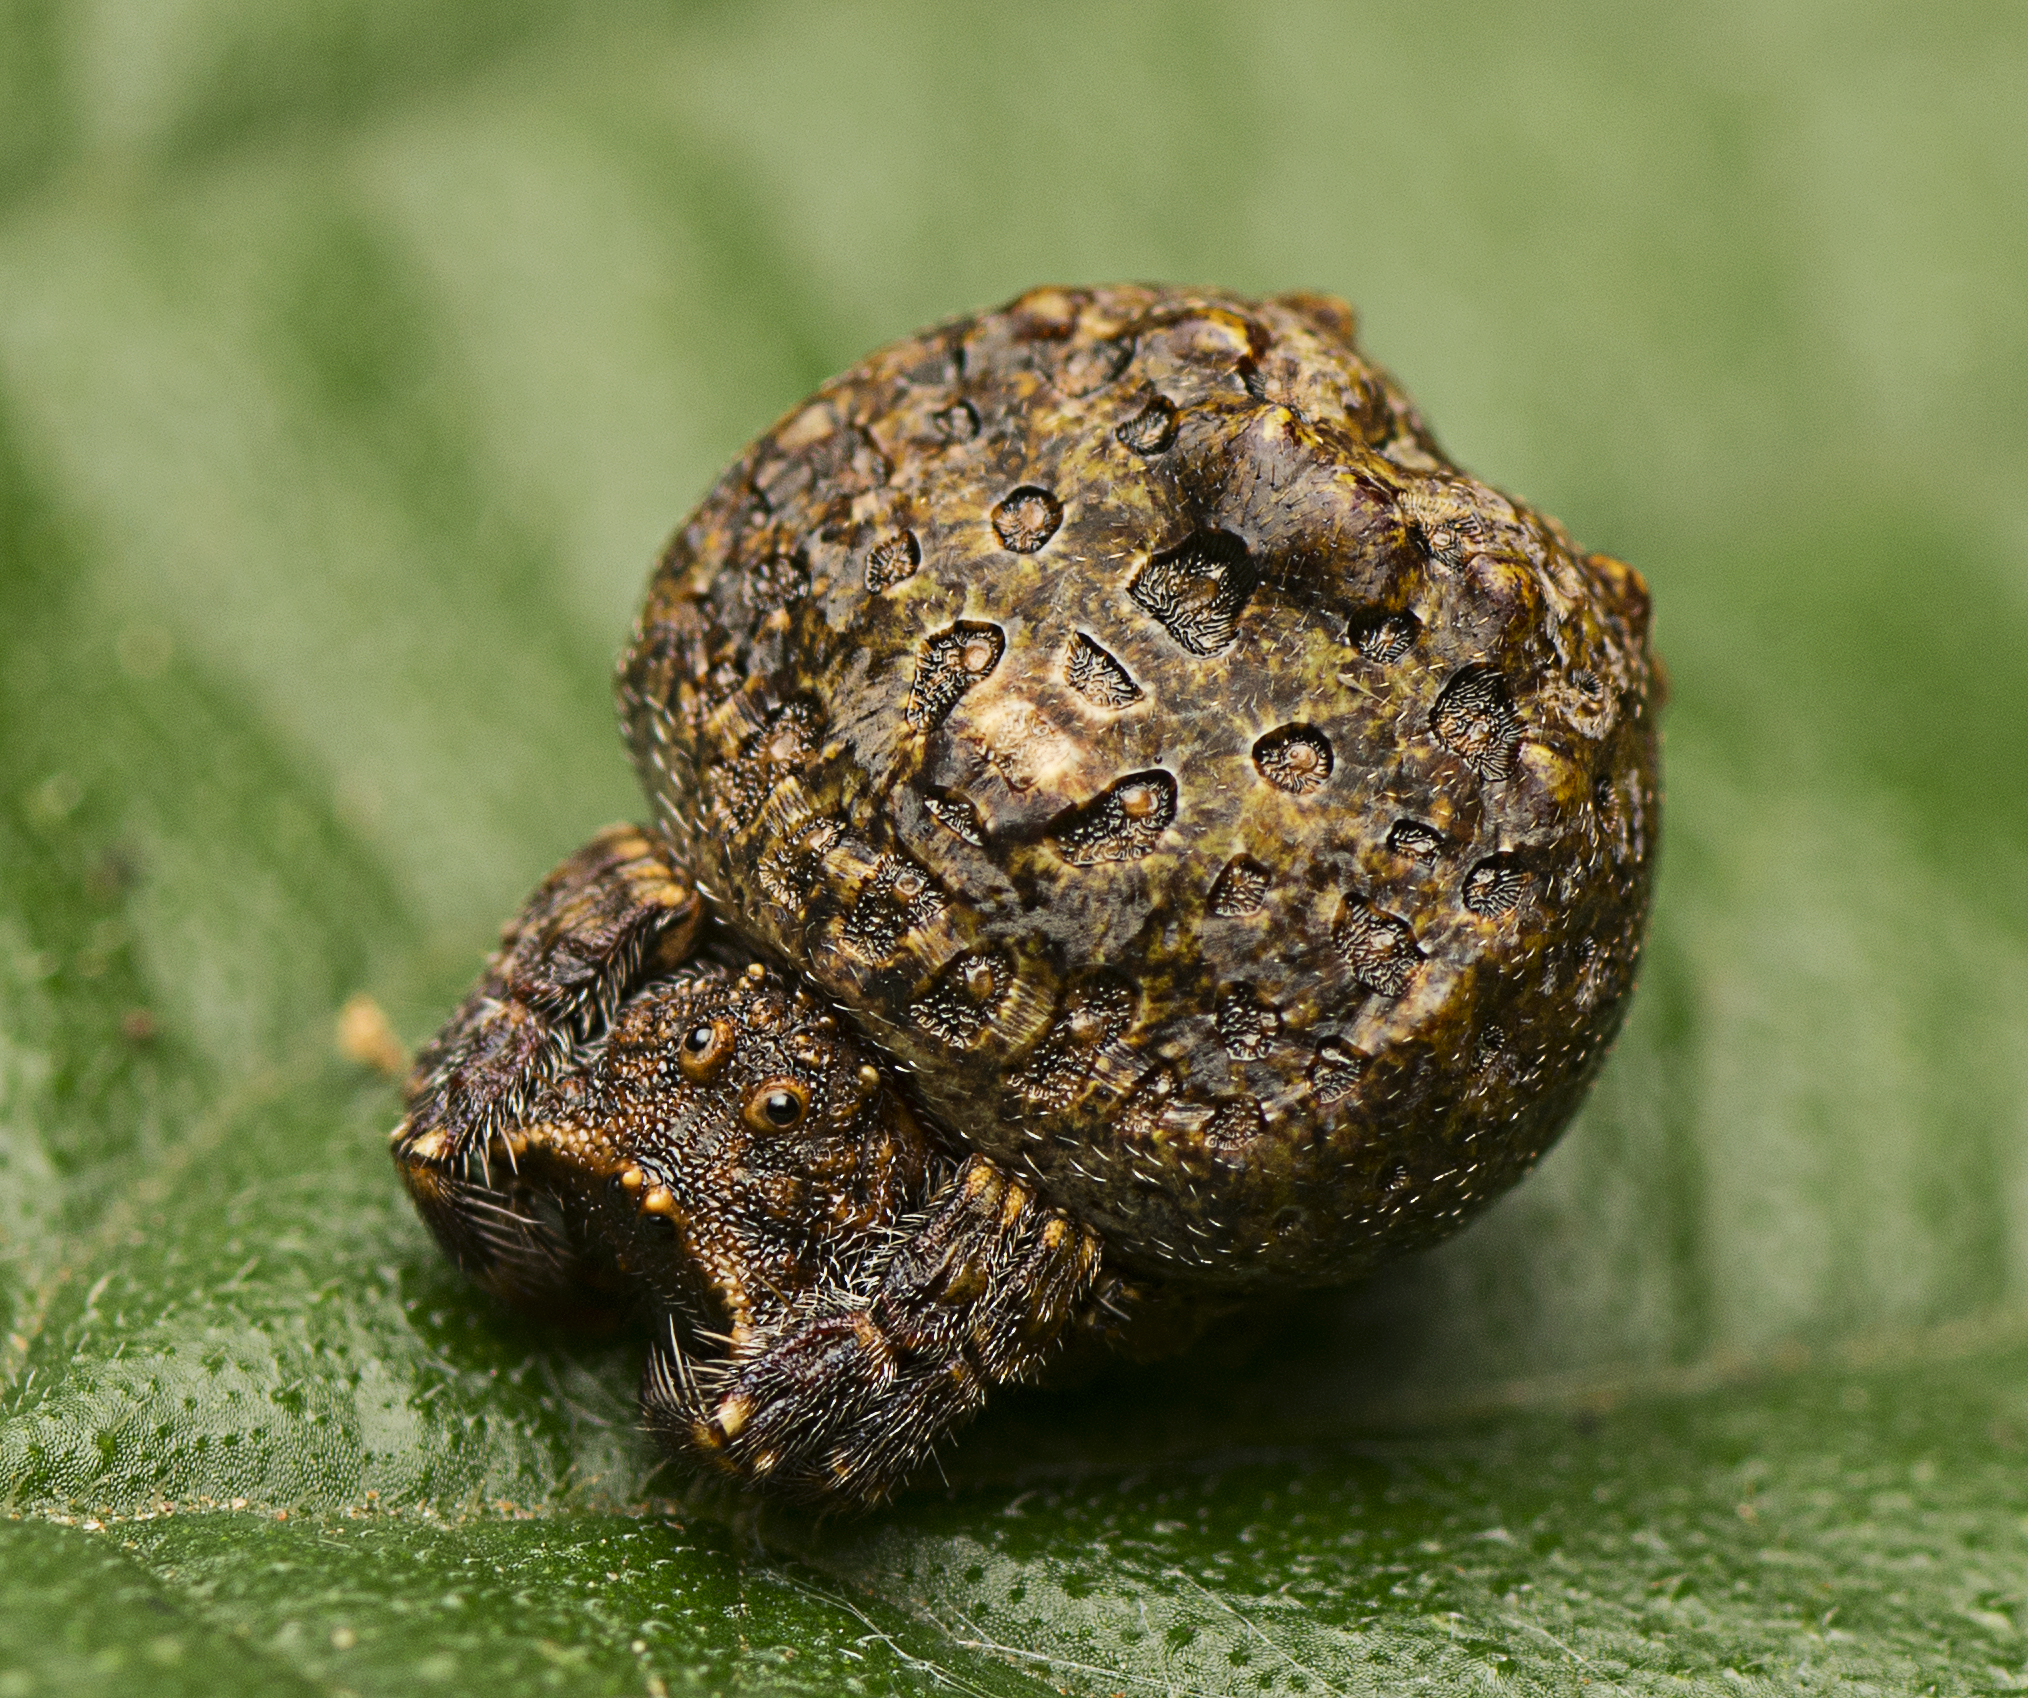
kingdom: Animalia
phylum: Arthropoda
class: Arachnida
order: Araneae
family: Arkyidae
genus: Arkys
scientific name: Arkys tuberculatus
